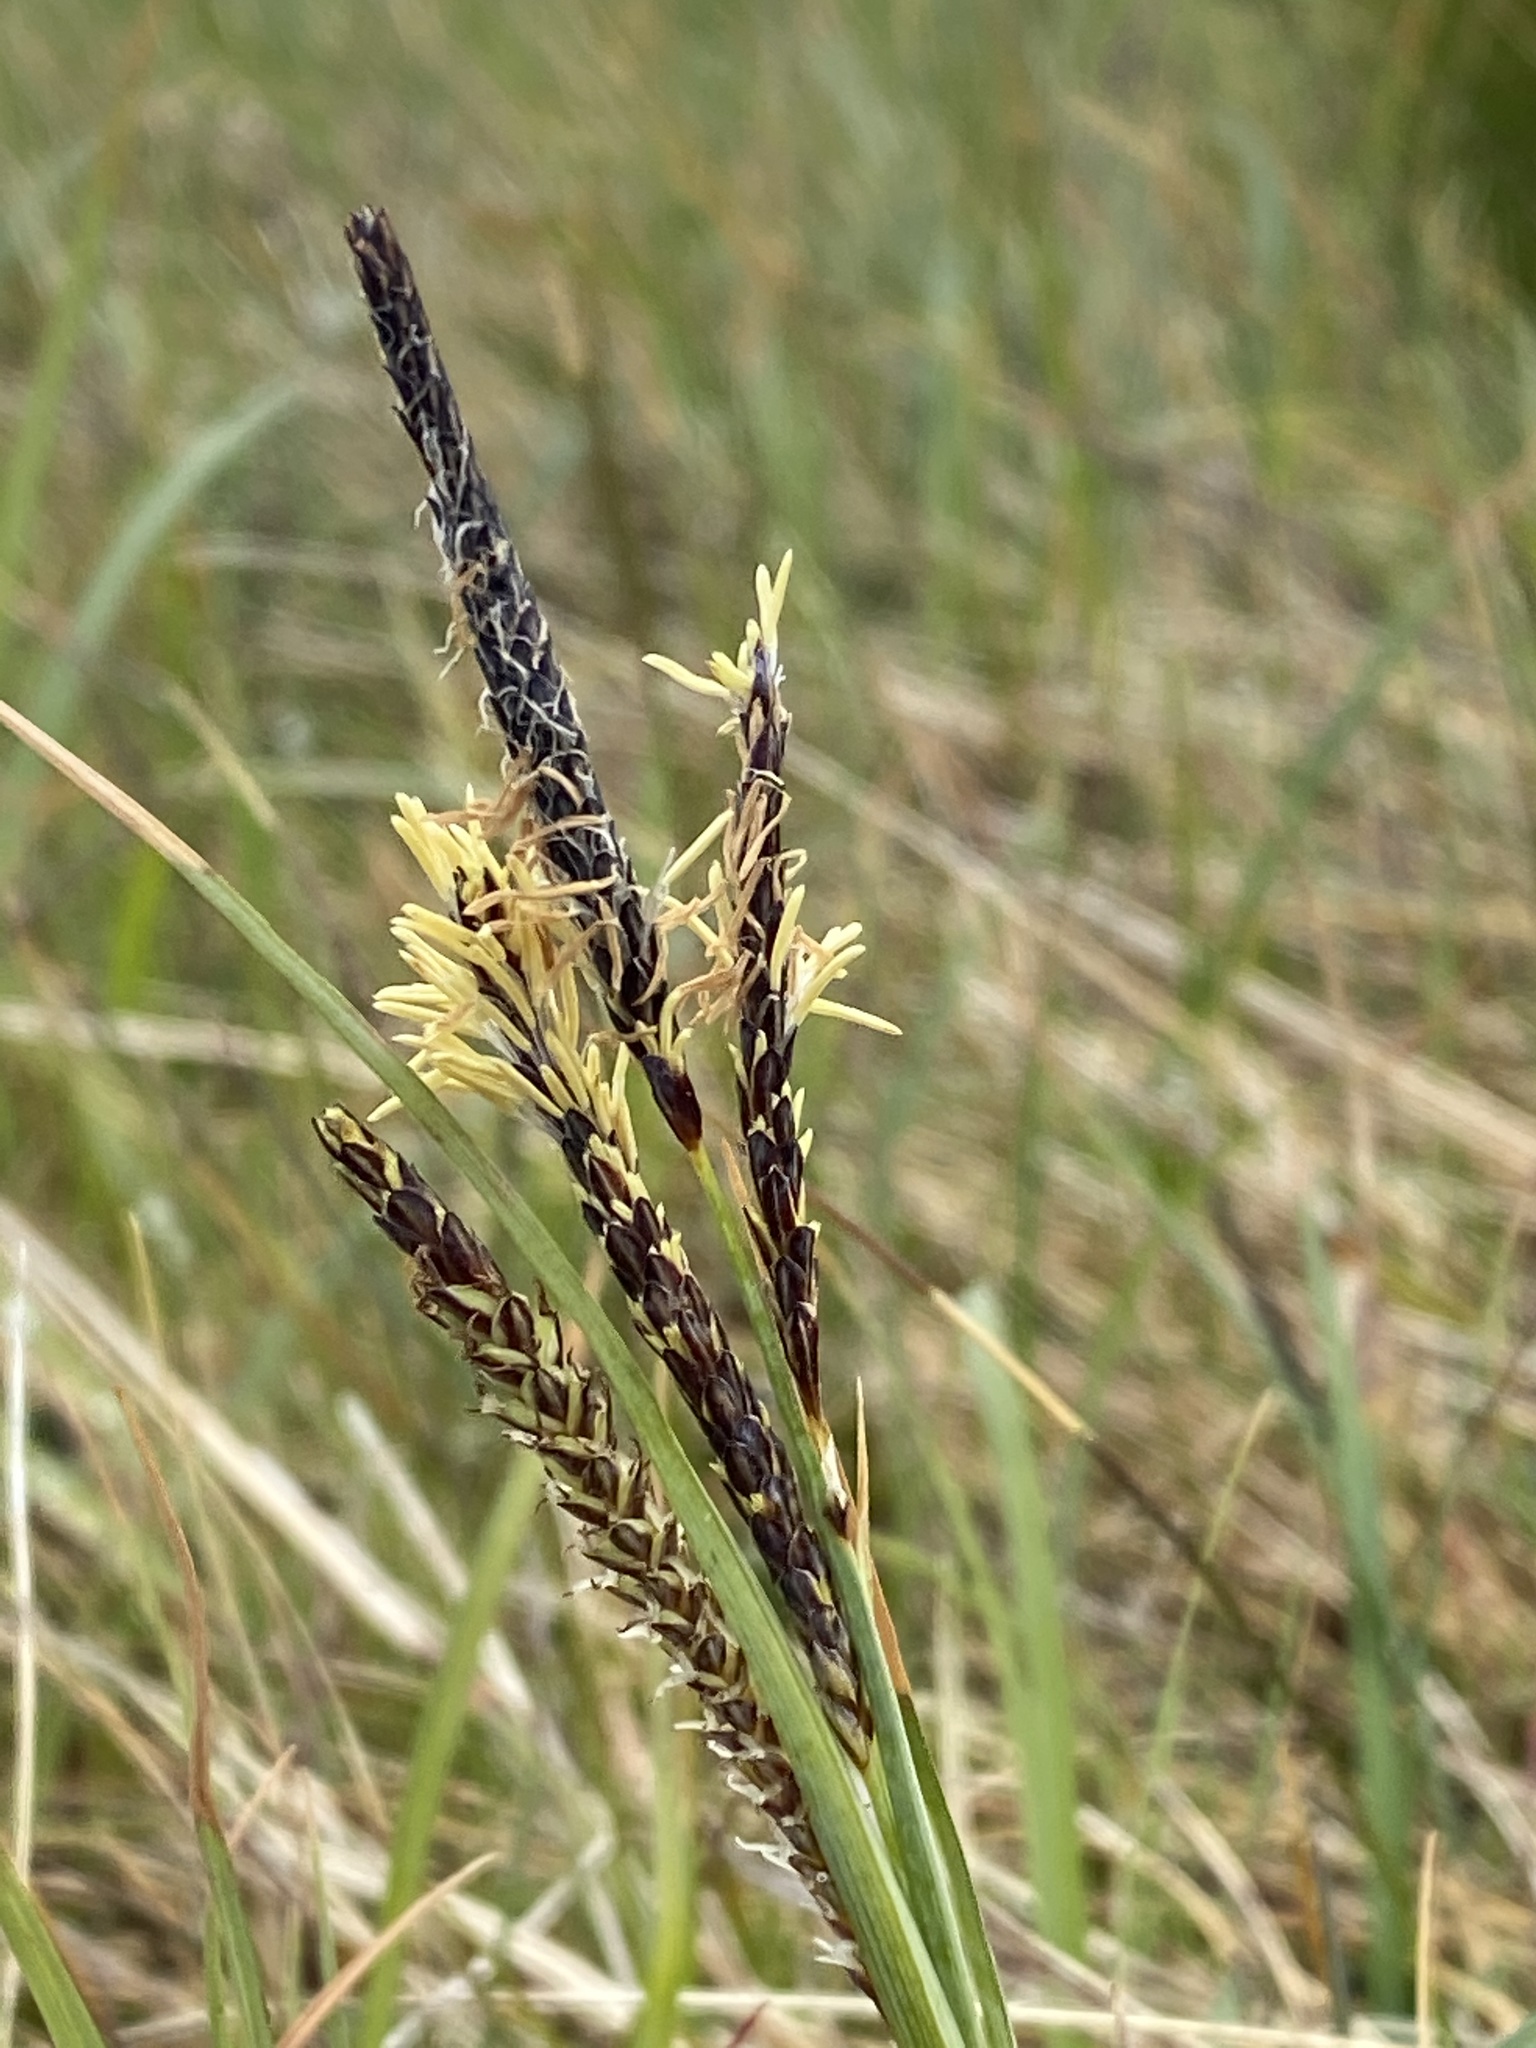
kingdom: Plantae
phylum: Tracheophyta
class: Liliopsida
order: Poales
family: Cyperaceae
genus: Carex
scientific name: Carex nigra
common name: Common sedge
